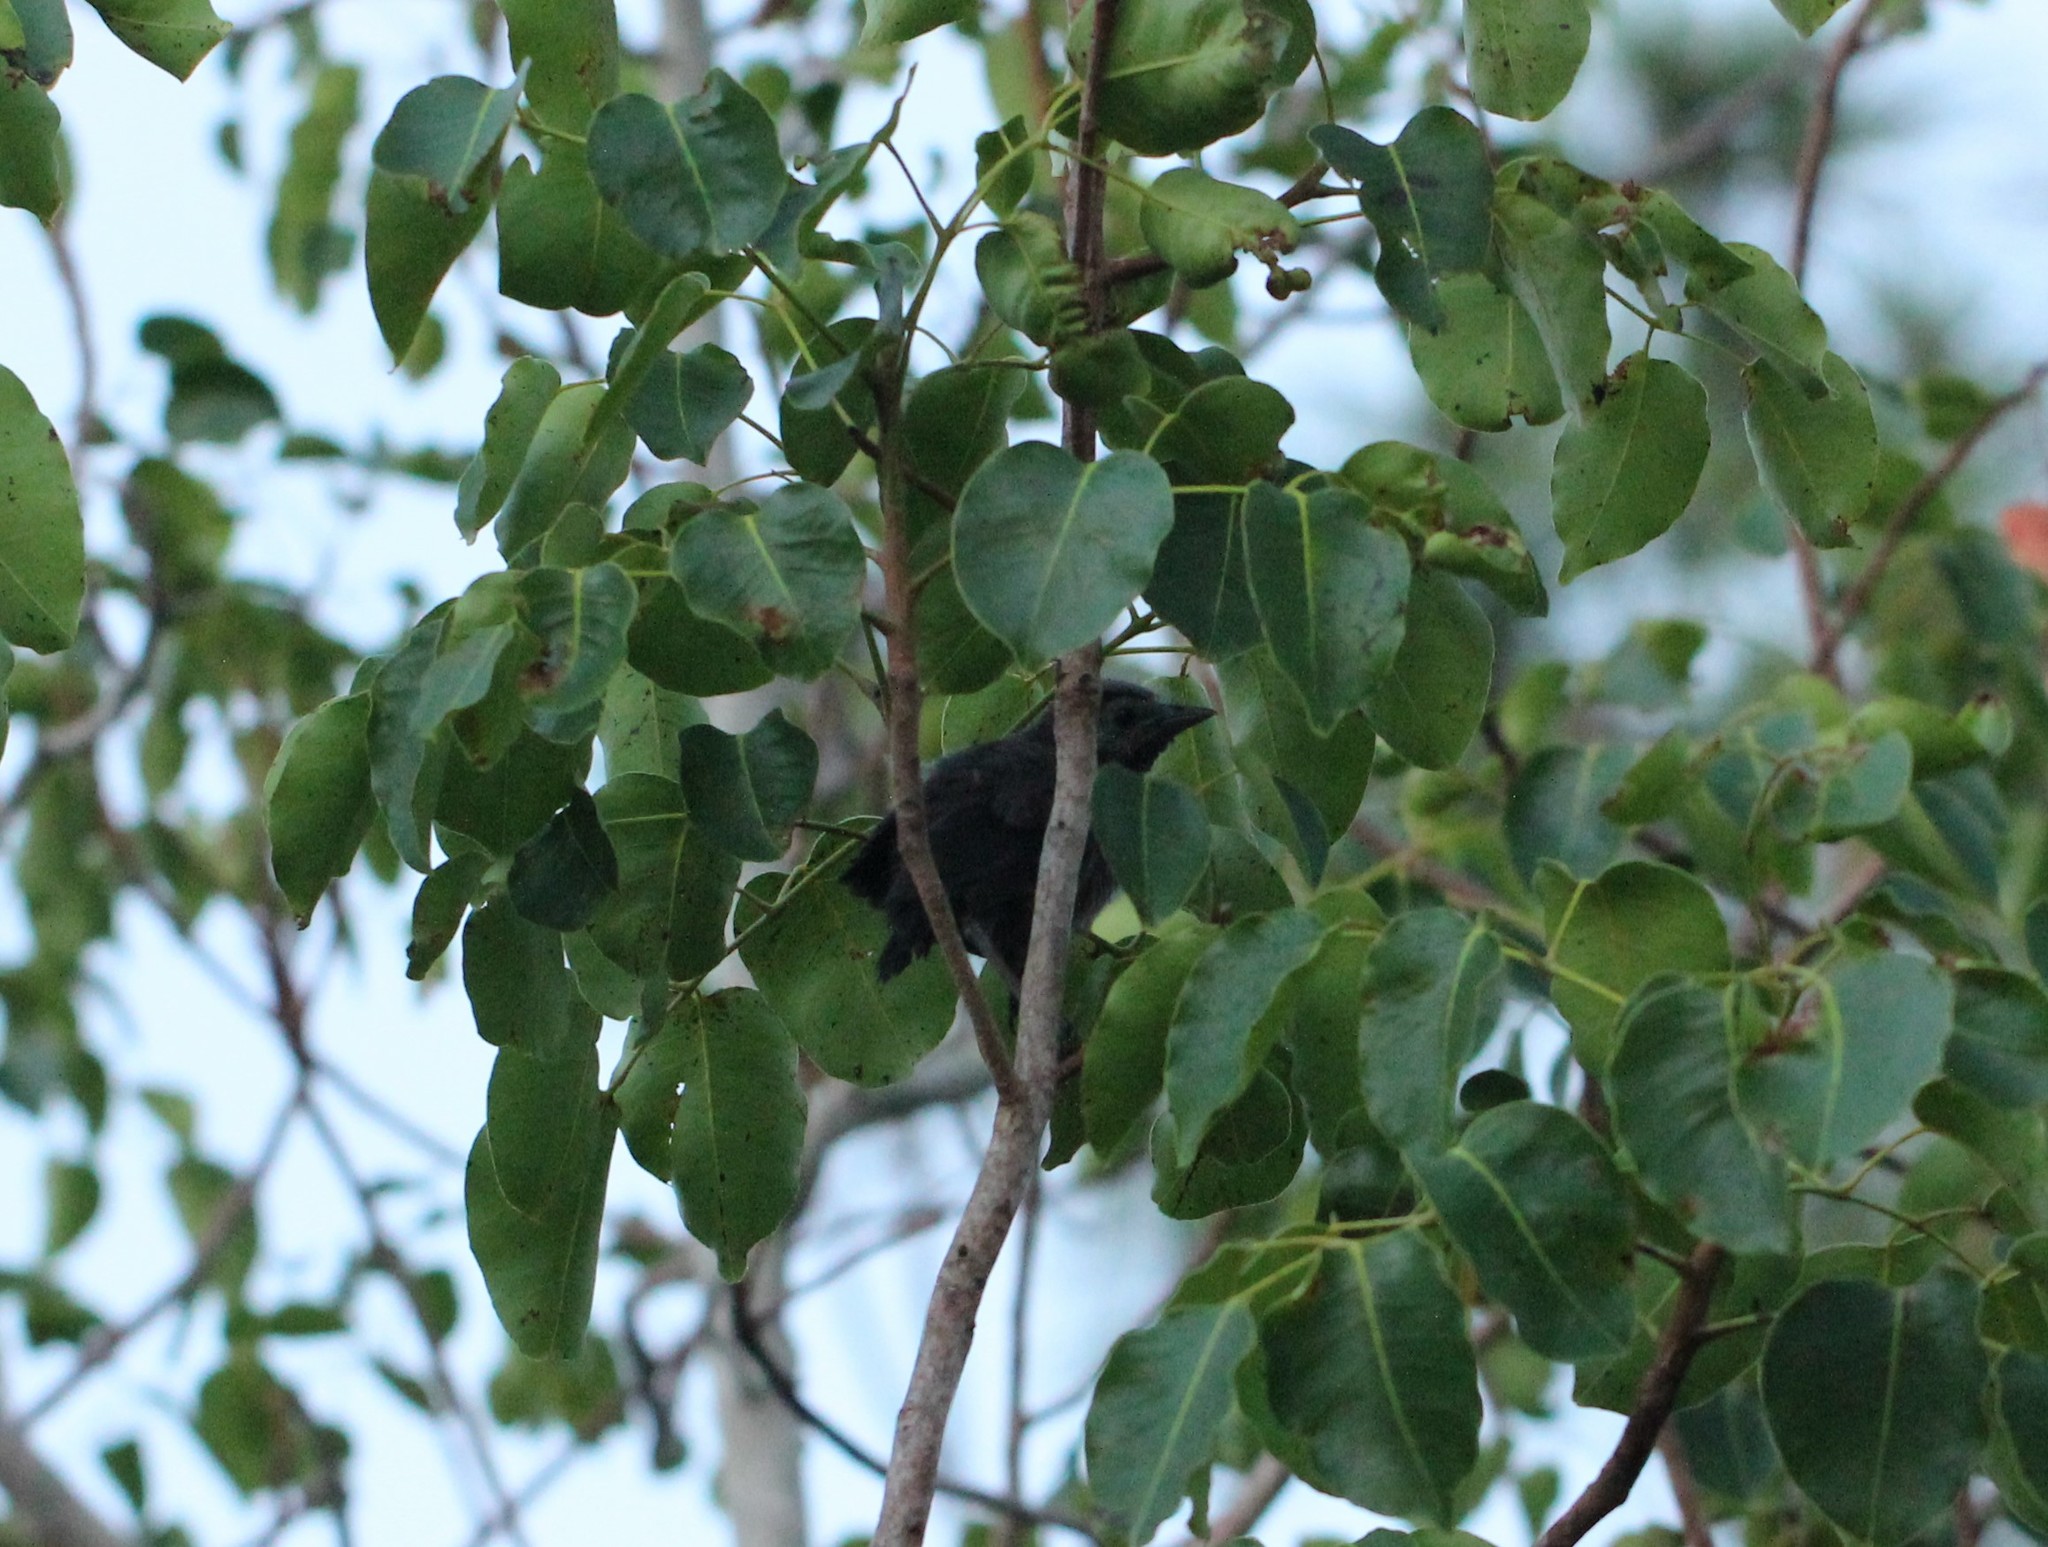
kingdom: Animalia
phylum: Chordata
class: Aves
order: Passeriformes
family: Icteridae
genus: Quiscalus
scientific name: Quiscalus quiscula
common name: Common grackle
